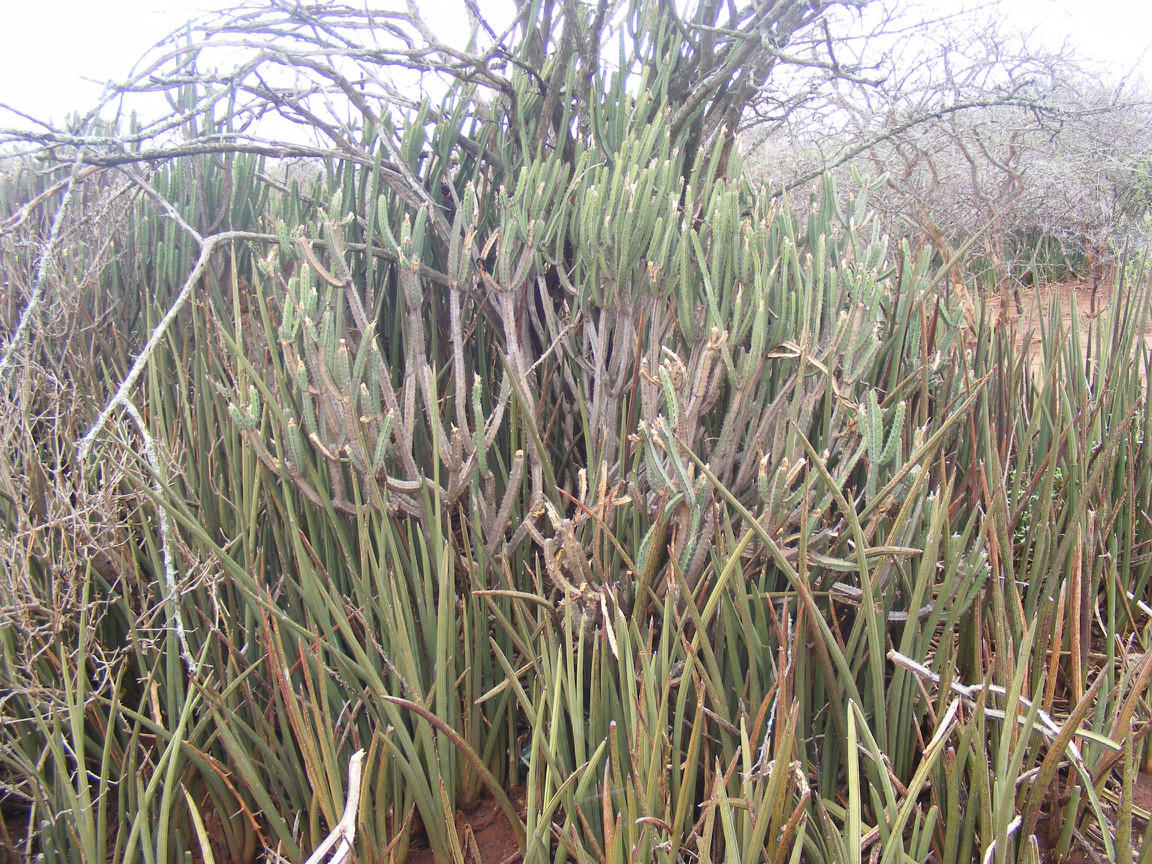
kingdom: Plantae
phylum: Tracheophyta
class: Magnoliopsida
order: Malpighiales
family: Euphorbiaceae
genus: Euphorbia
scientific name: Euphorbia lydenburgensis
